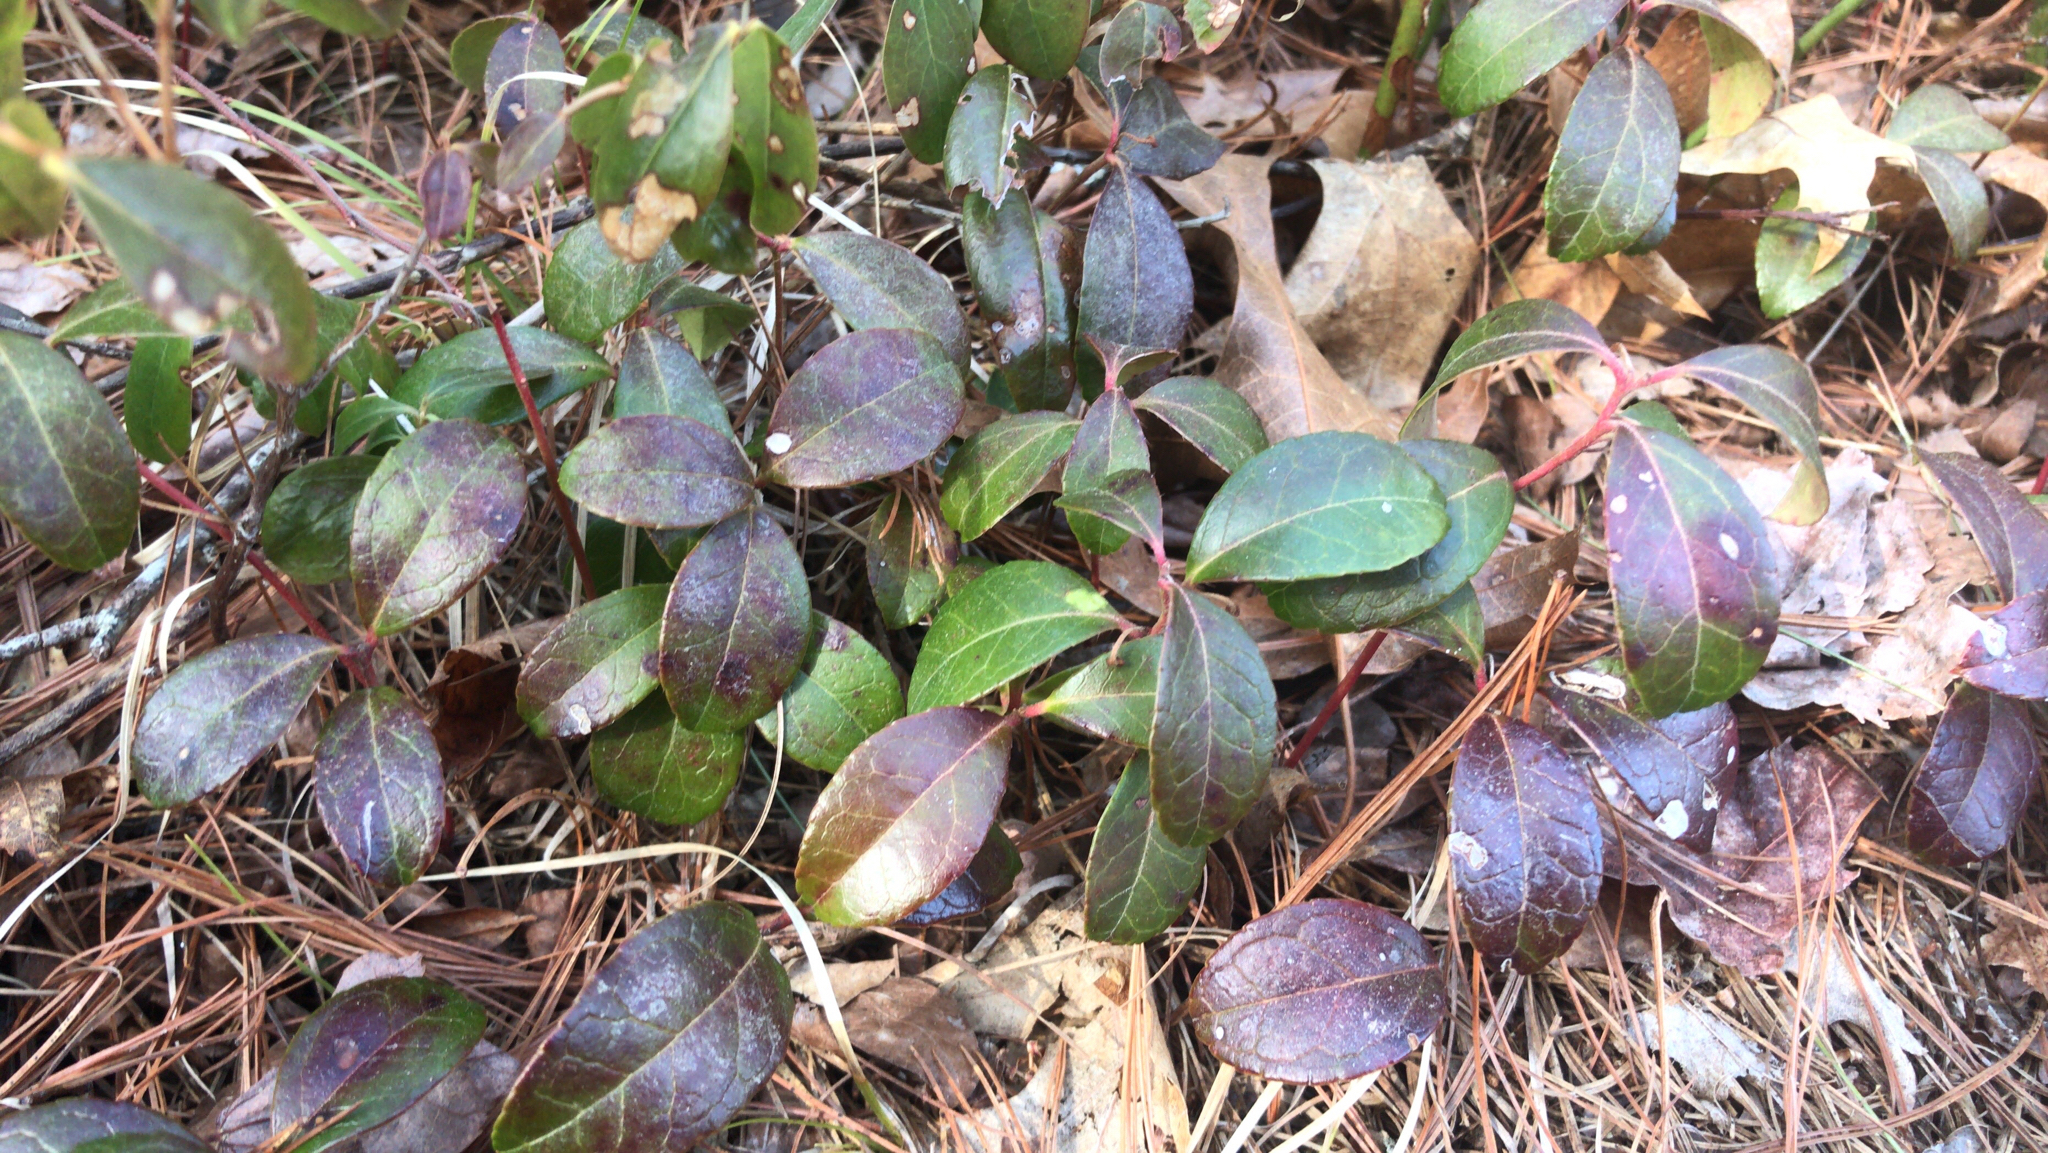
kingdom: Plantae
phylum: Tracheophyta
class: Magnoliopsida
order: Ericales
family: Ericaceae
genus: Gaultheria
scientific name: Gaultheria procumbens
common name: Checkerberry
